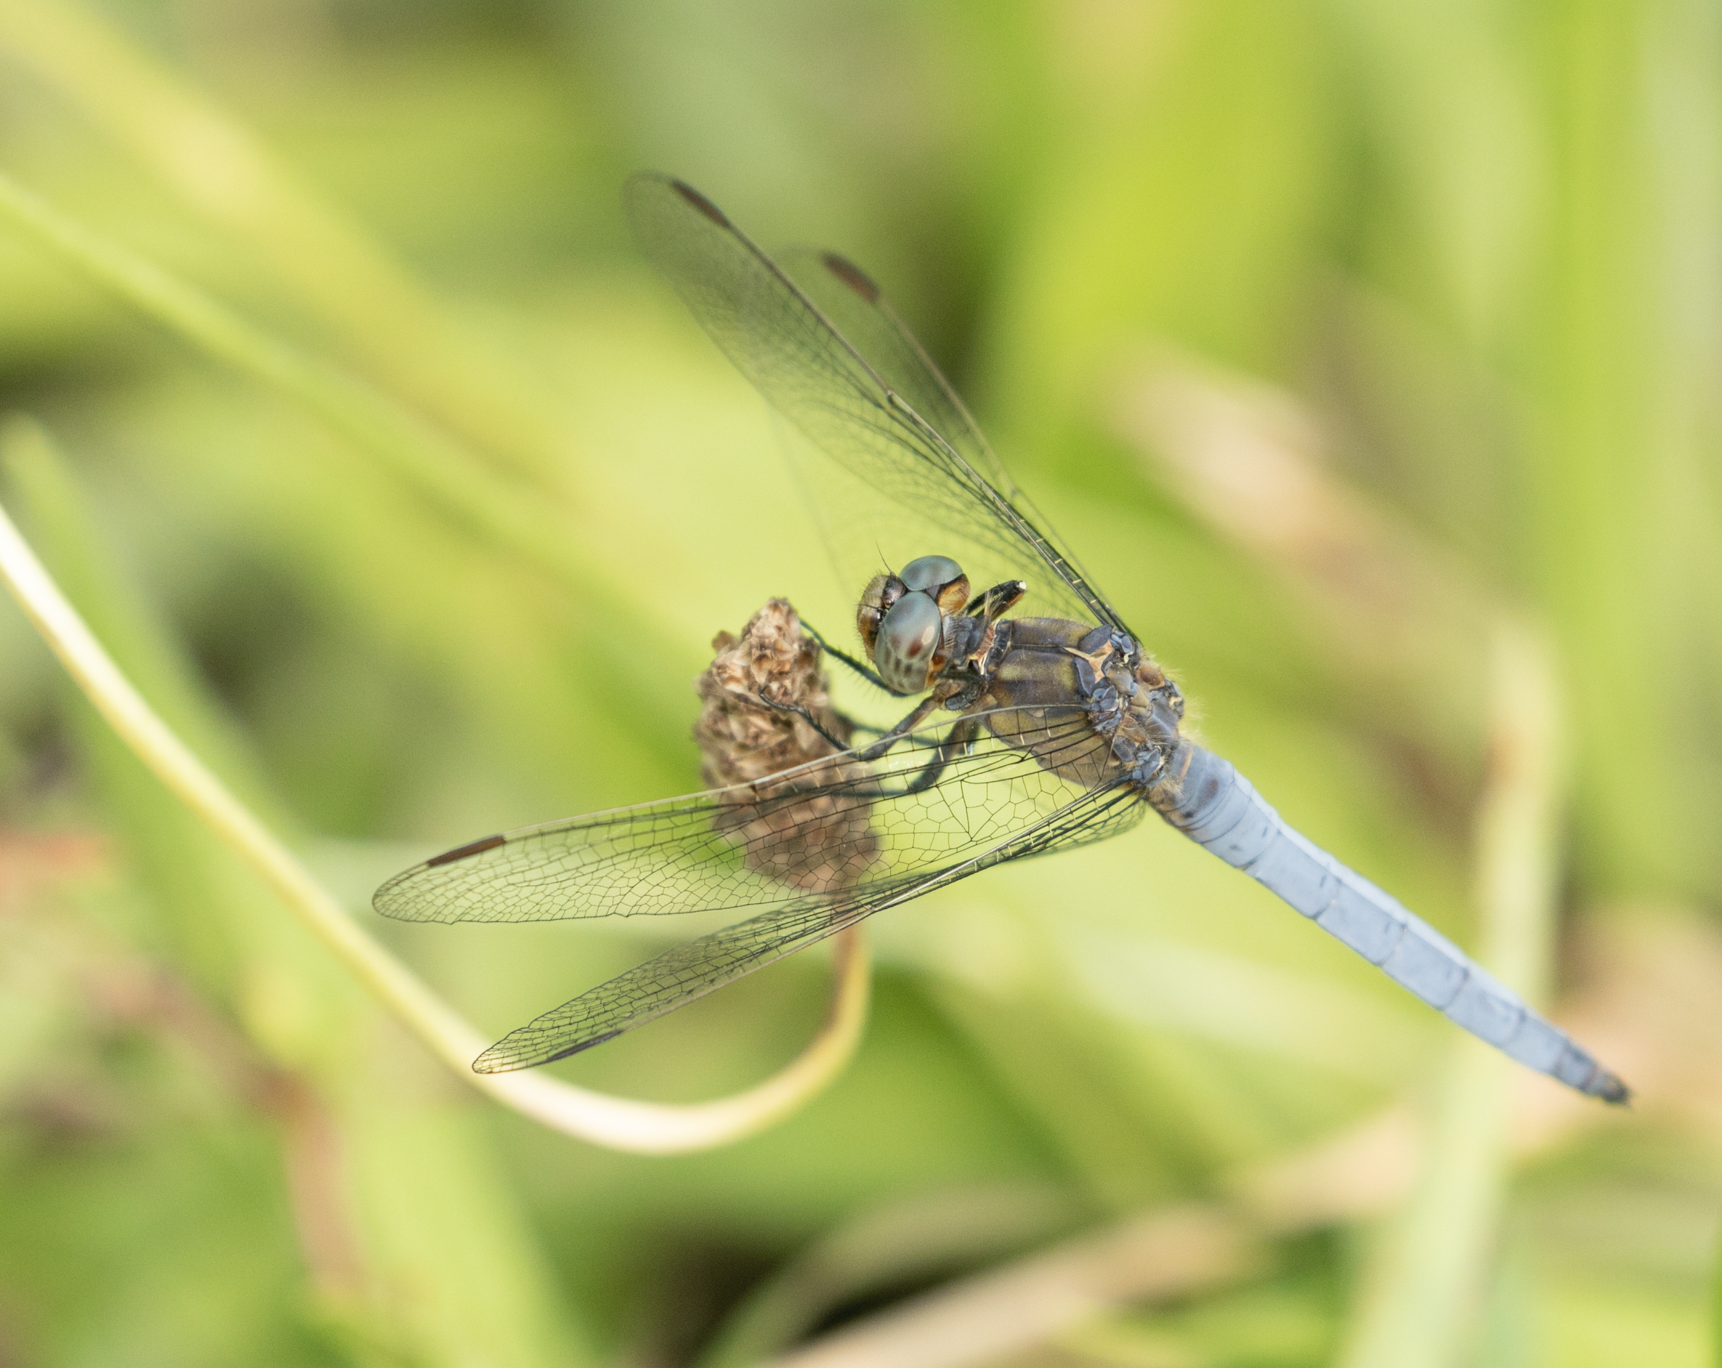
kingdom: Animalia
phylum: Arthropoda
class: Insecta
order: Odonata
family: Libellulidae
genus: Orthetrum
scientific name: Orthetrum coerulescens
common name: Keeled skimmer
